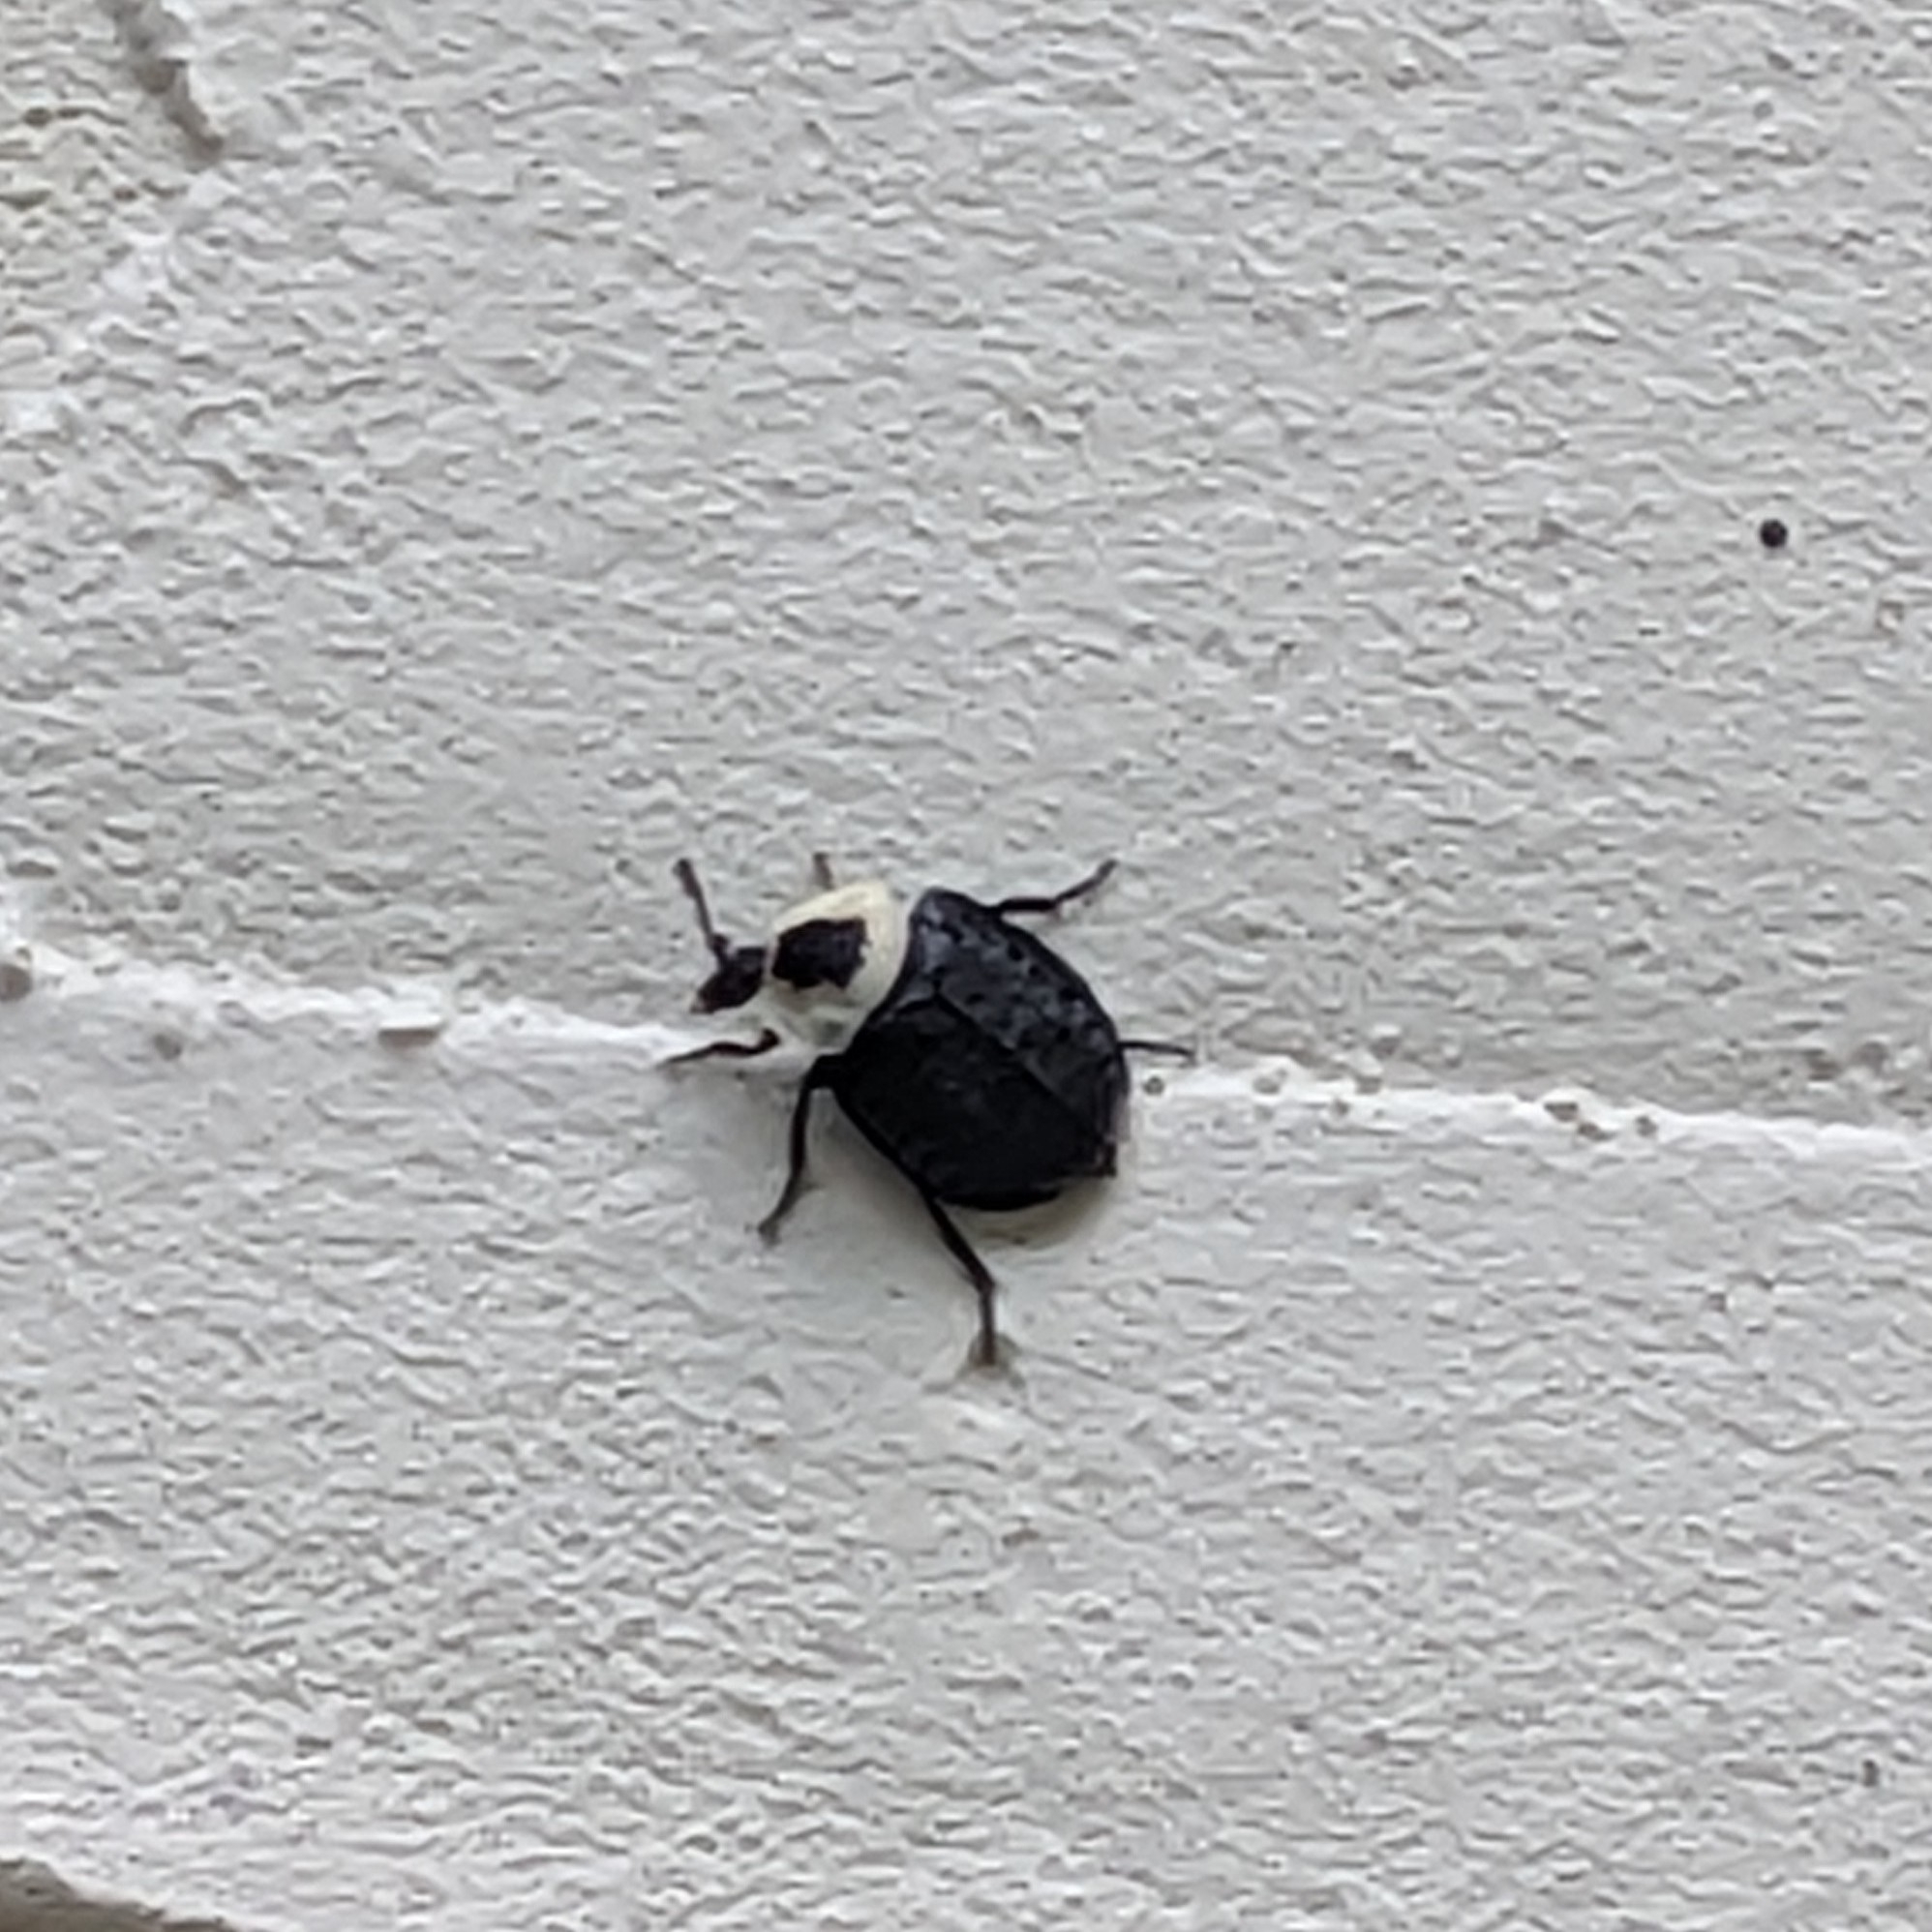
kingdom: Animalia
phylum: Arthropoda
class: Insecta
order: Coleoptera
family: Staphylinidae
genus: Necrophila
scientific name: Necrophila americana
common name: American carrion beetle
